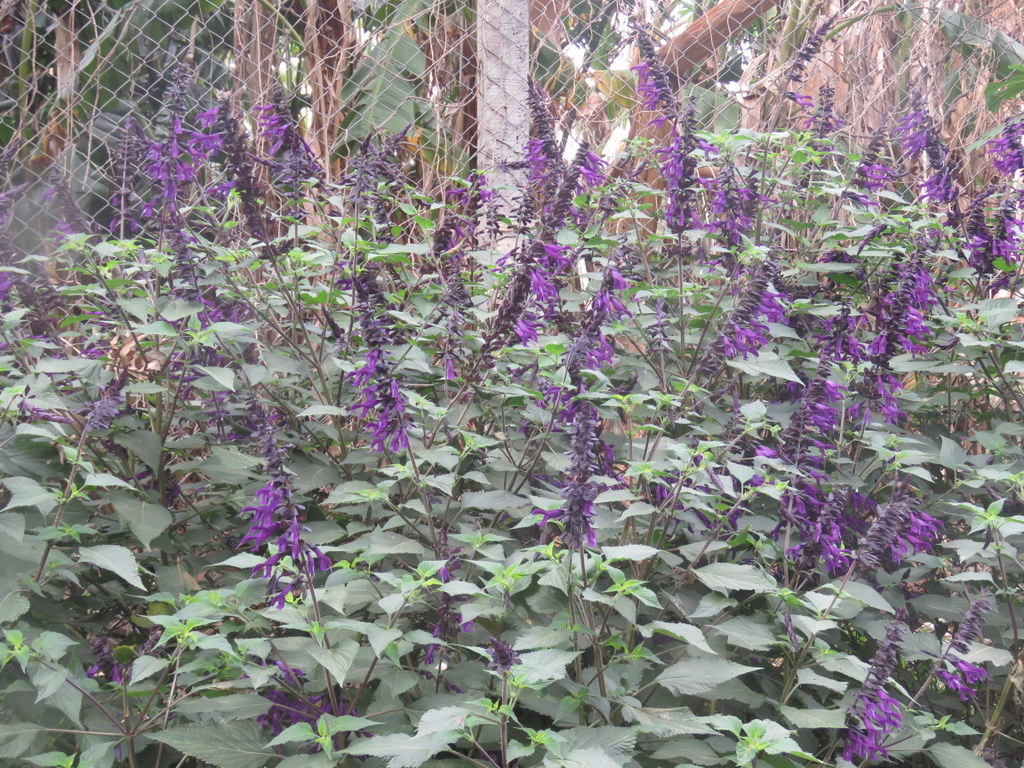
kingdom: Plantae
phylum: Tracheophyta
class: Magnoliopsida
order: Lamiales
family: Lamiaceae
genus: Salvia
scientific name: Salvia guaranitica
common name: Anise-scented sage
